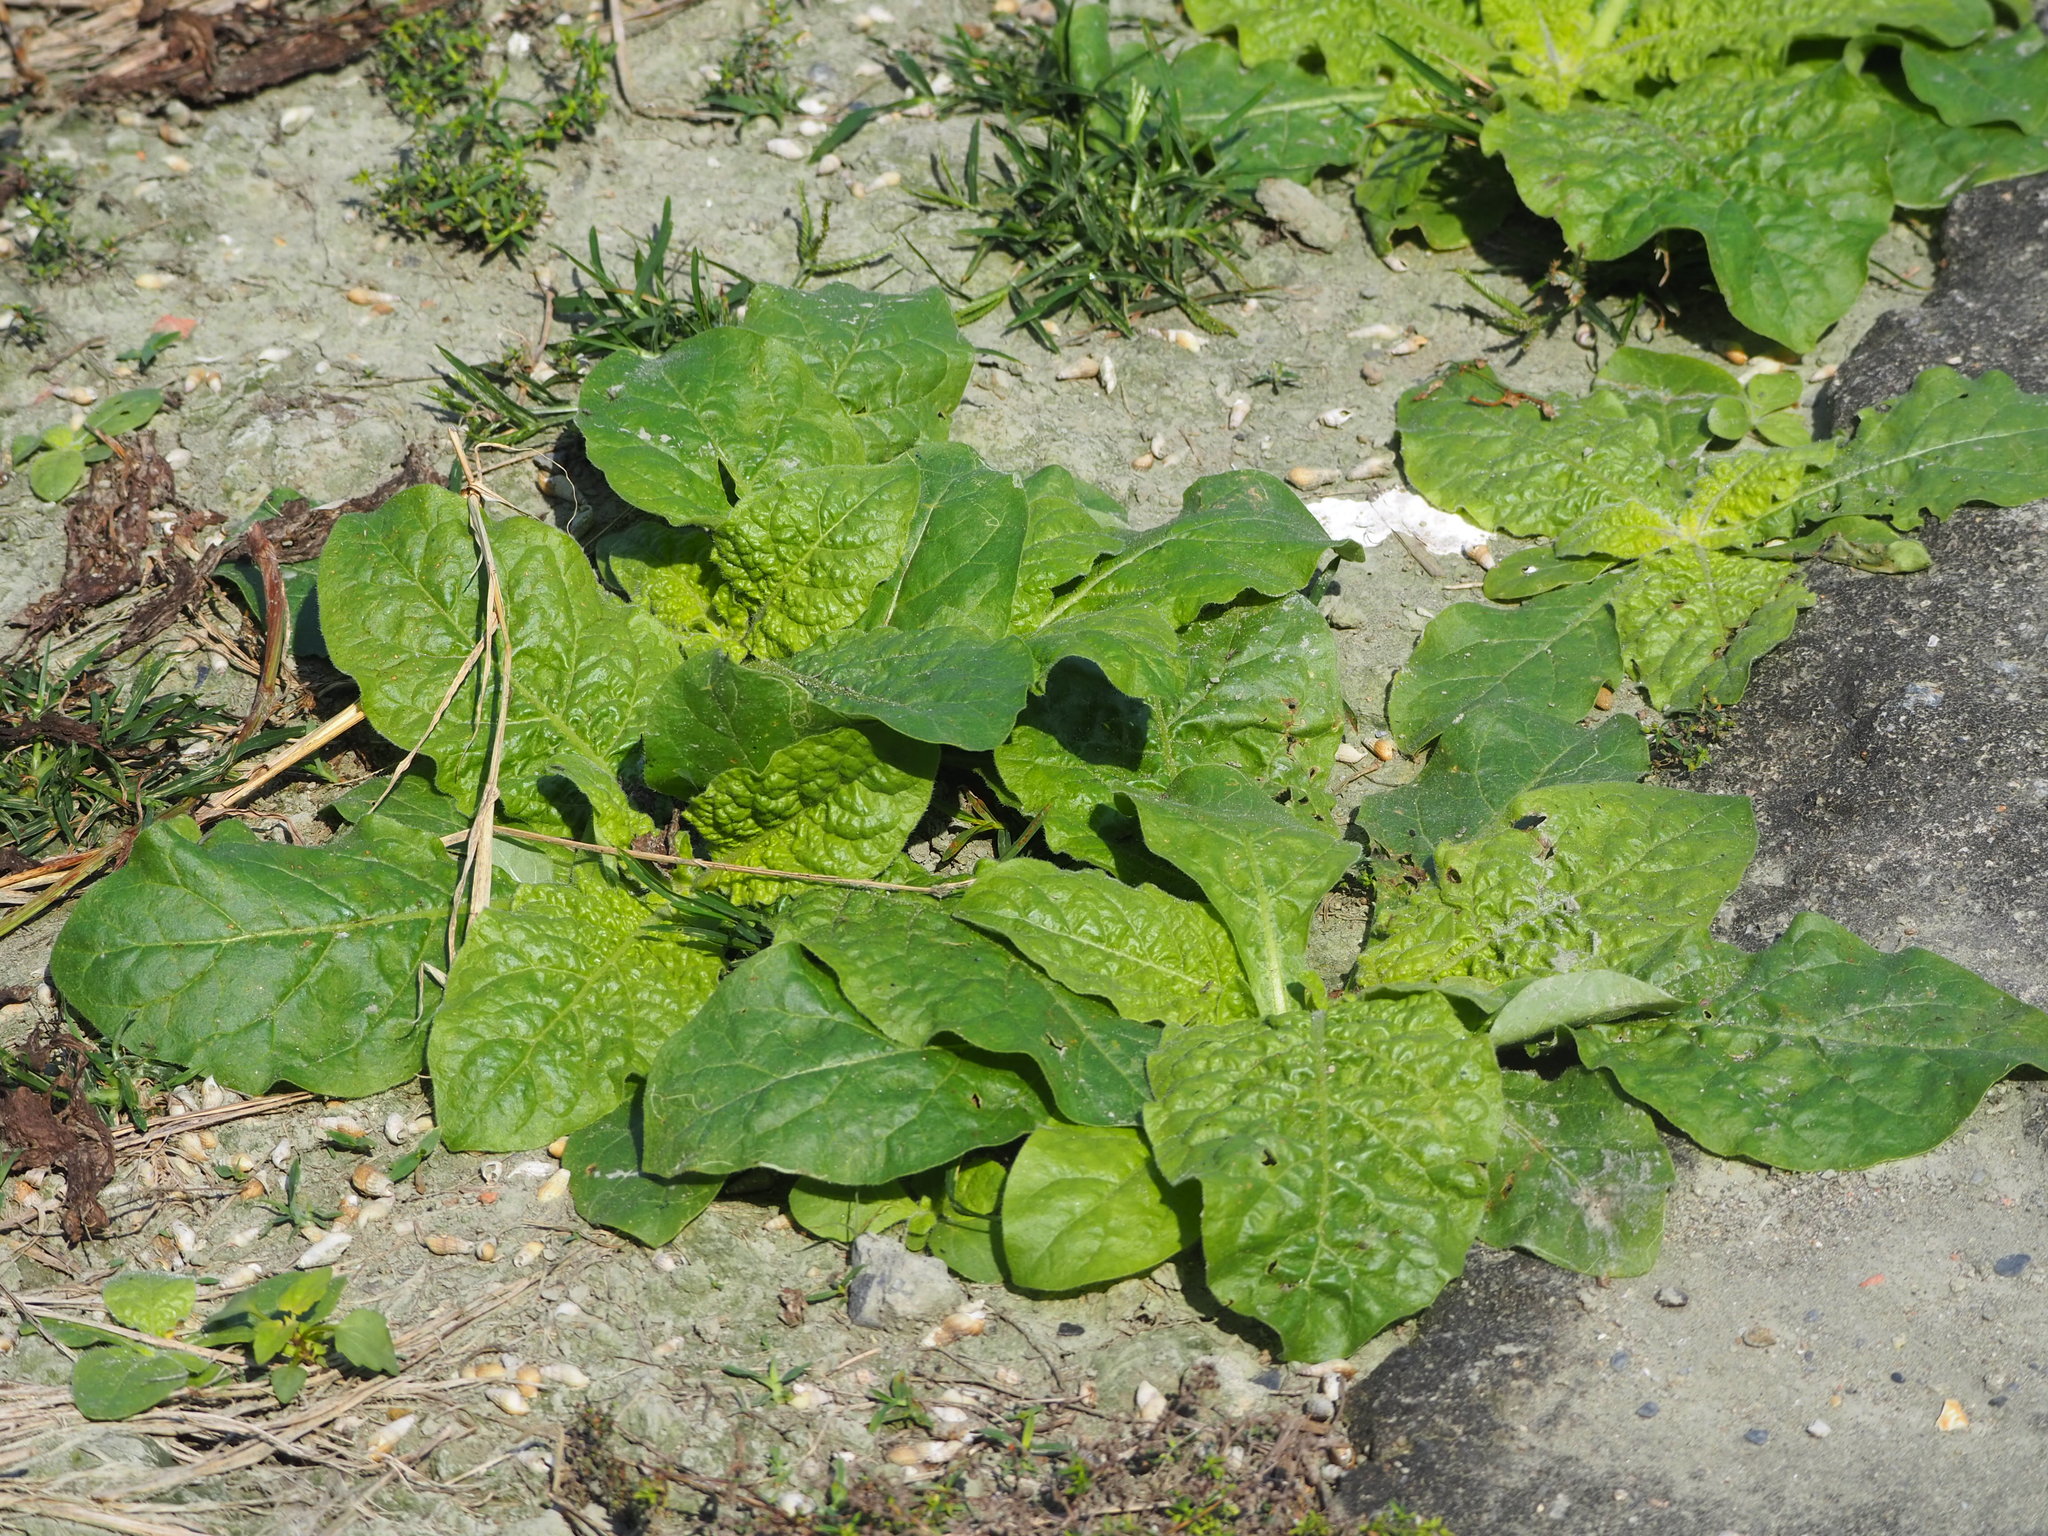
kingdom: Plantae
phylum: Tracheophyta
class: Magnoliopsida
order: Solanales
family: Solanaceae
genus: Nicotiana
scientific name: Nicotiana plumbaginifolia
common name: Tex-mex tobacco
